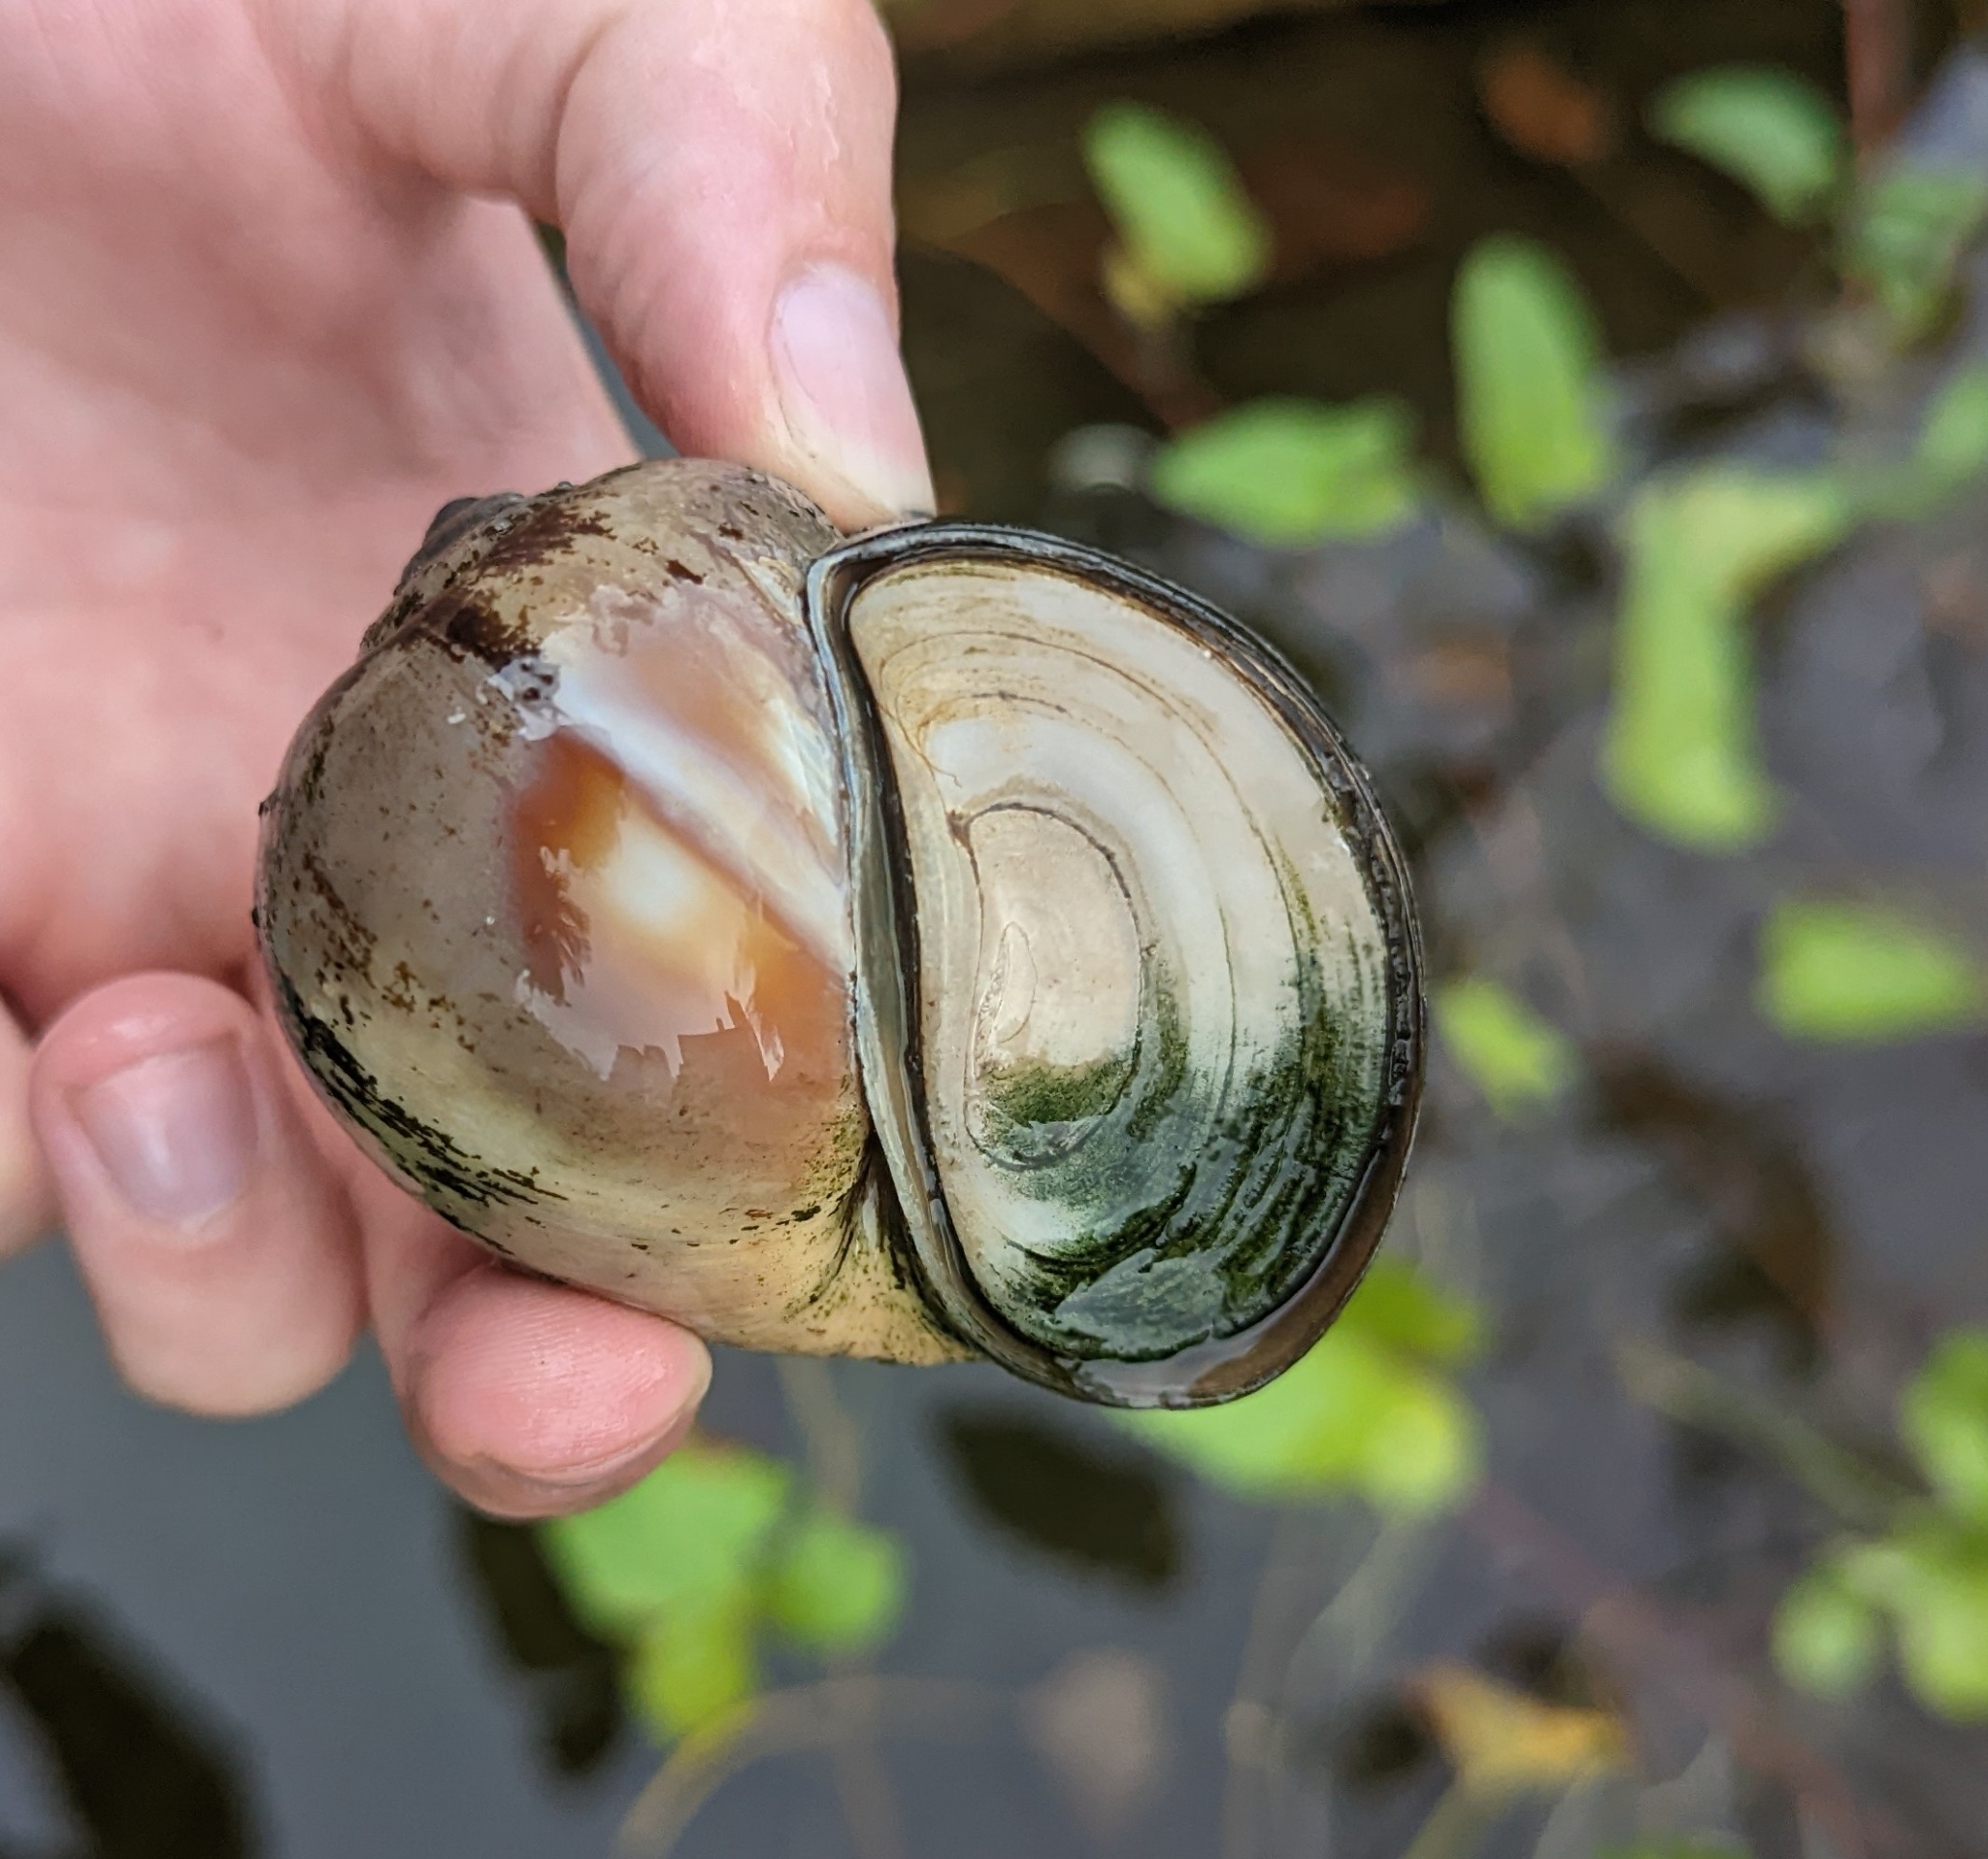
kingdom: Animalia
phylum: Mollusca
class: Gastropoda
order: Architaenioglossa
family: Ampullariidae
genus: Pomacea
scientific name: Pomacea maculata
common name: Giant applesnail
